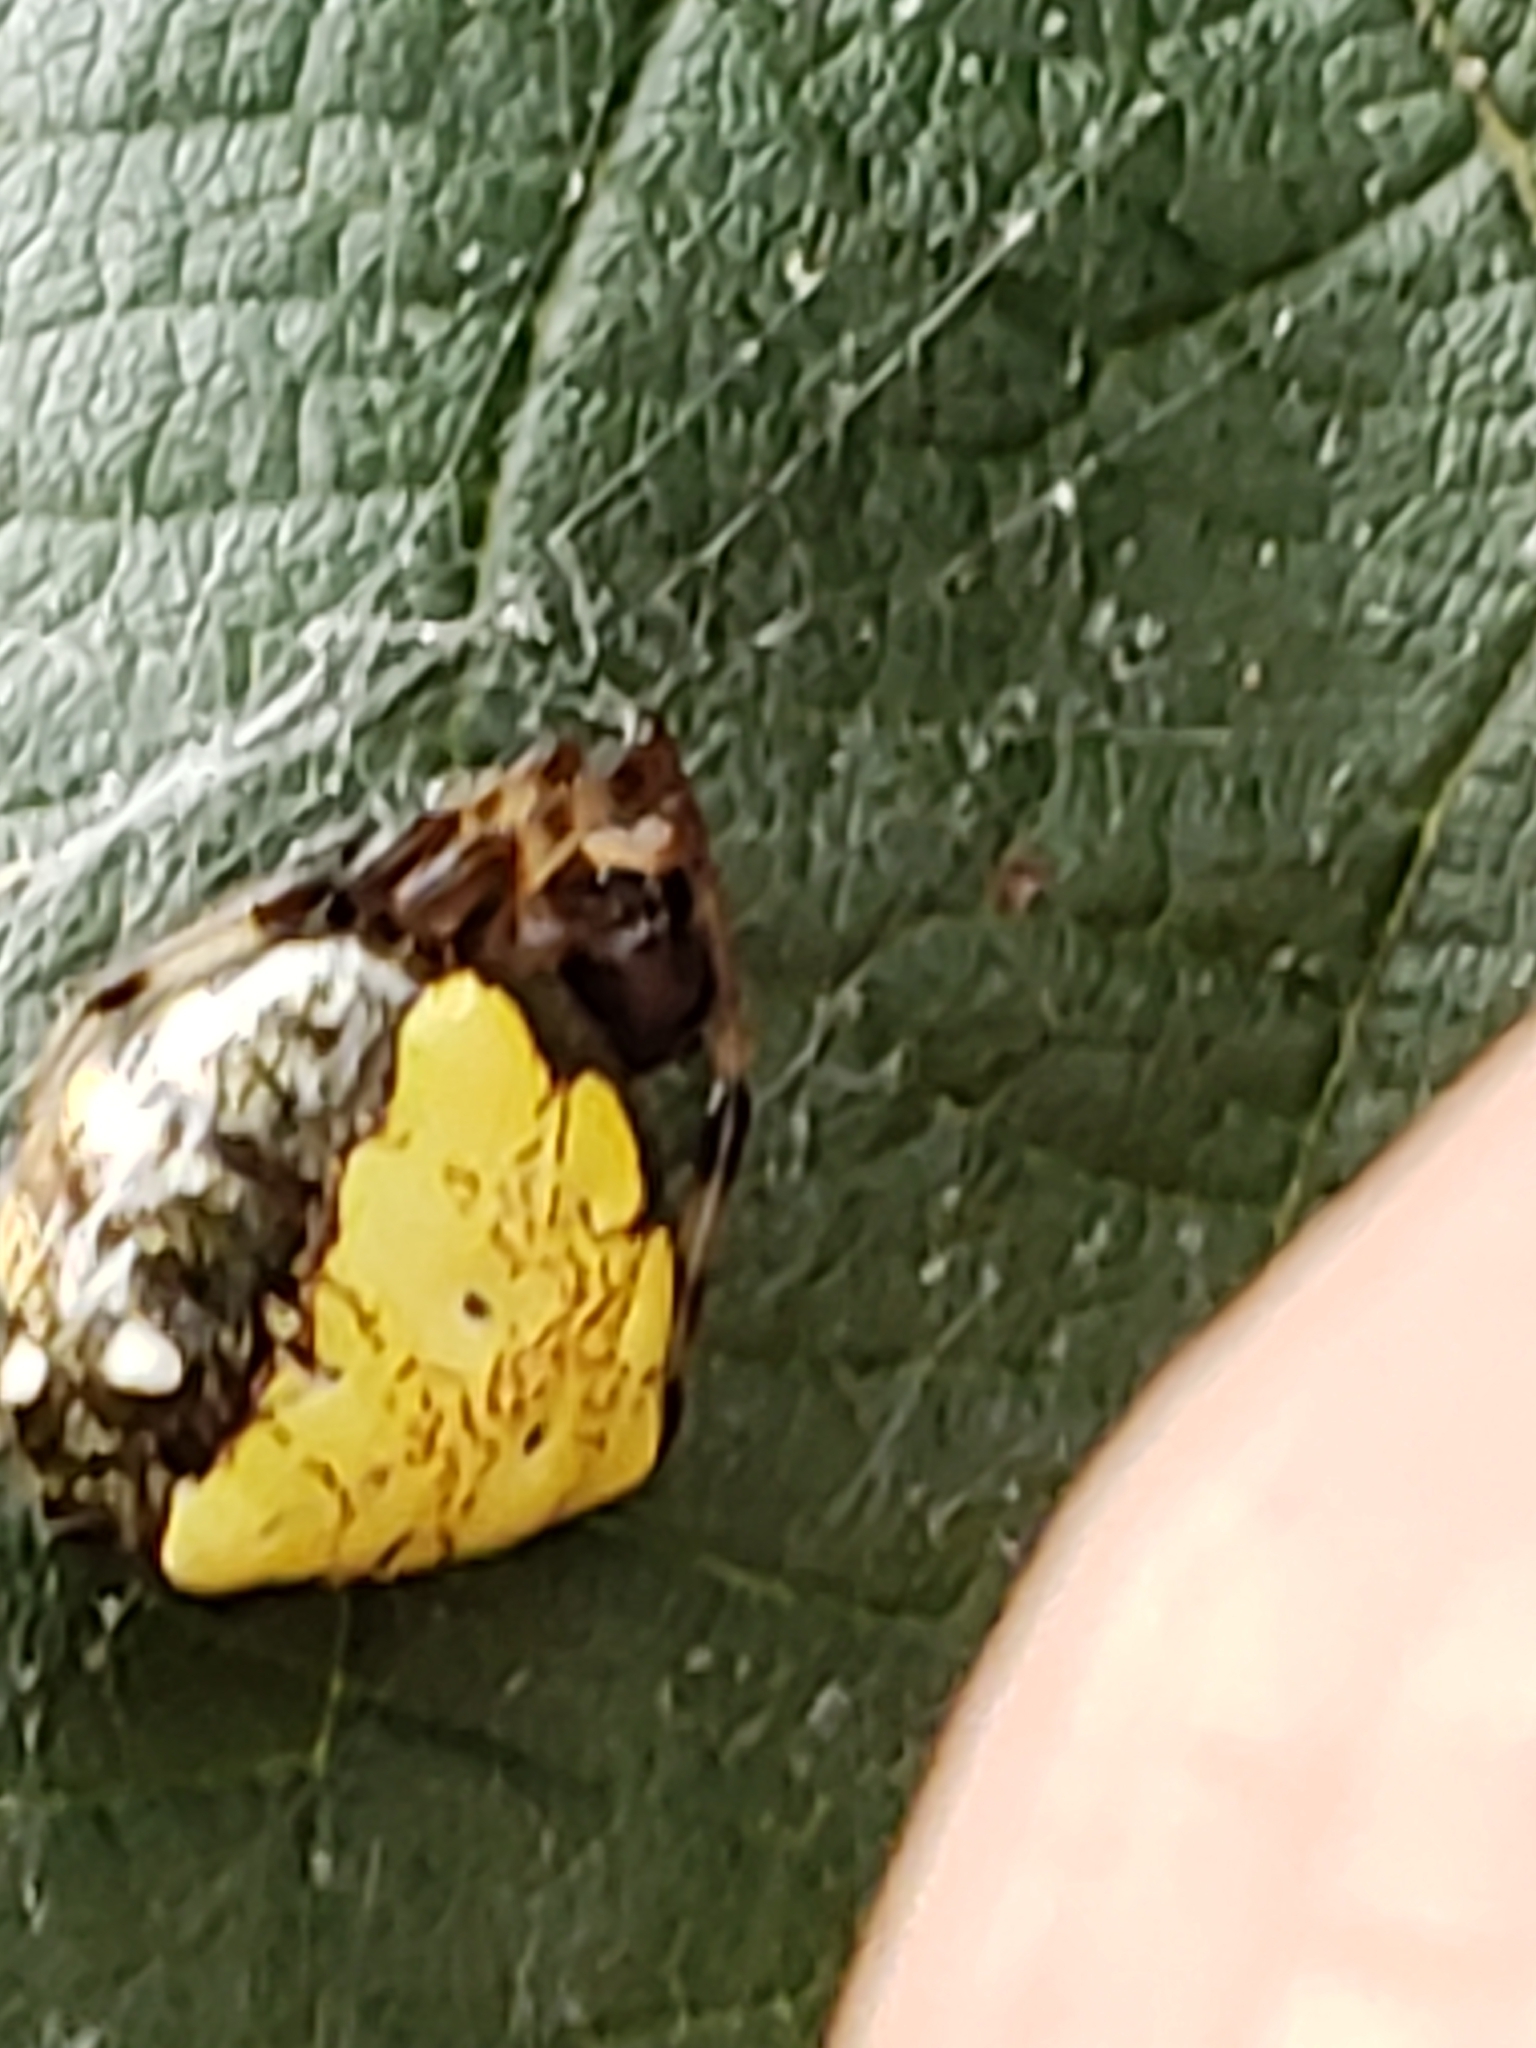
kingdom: Animalia
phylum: Arthropoda
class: Arachnida
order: Araneae
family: Araneidae
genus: Verrucosa
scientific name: Verrucosa arenata
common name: Orb weavers
